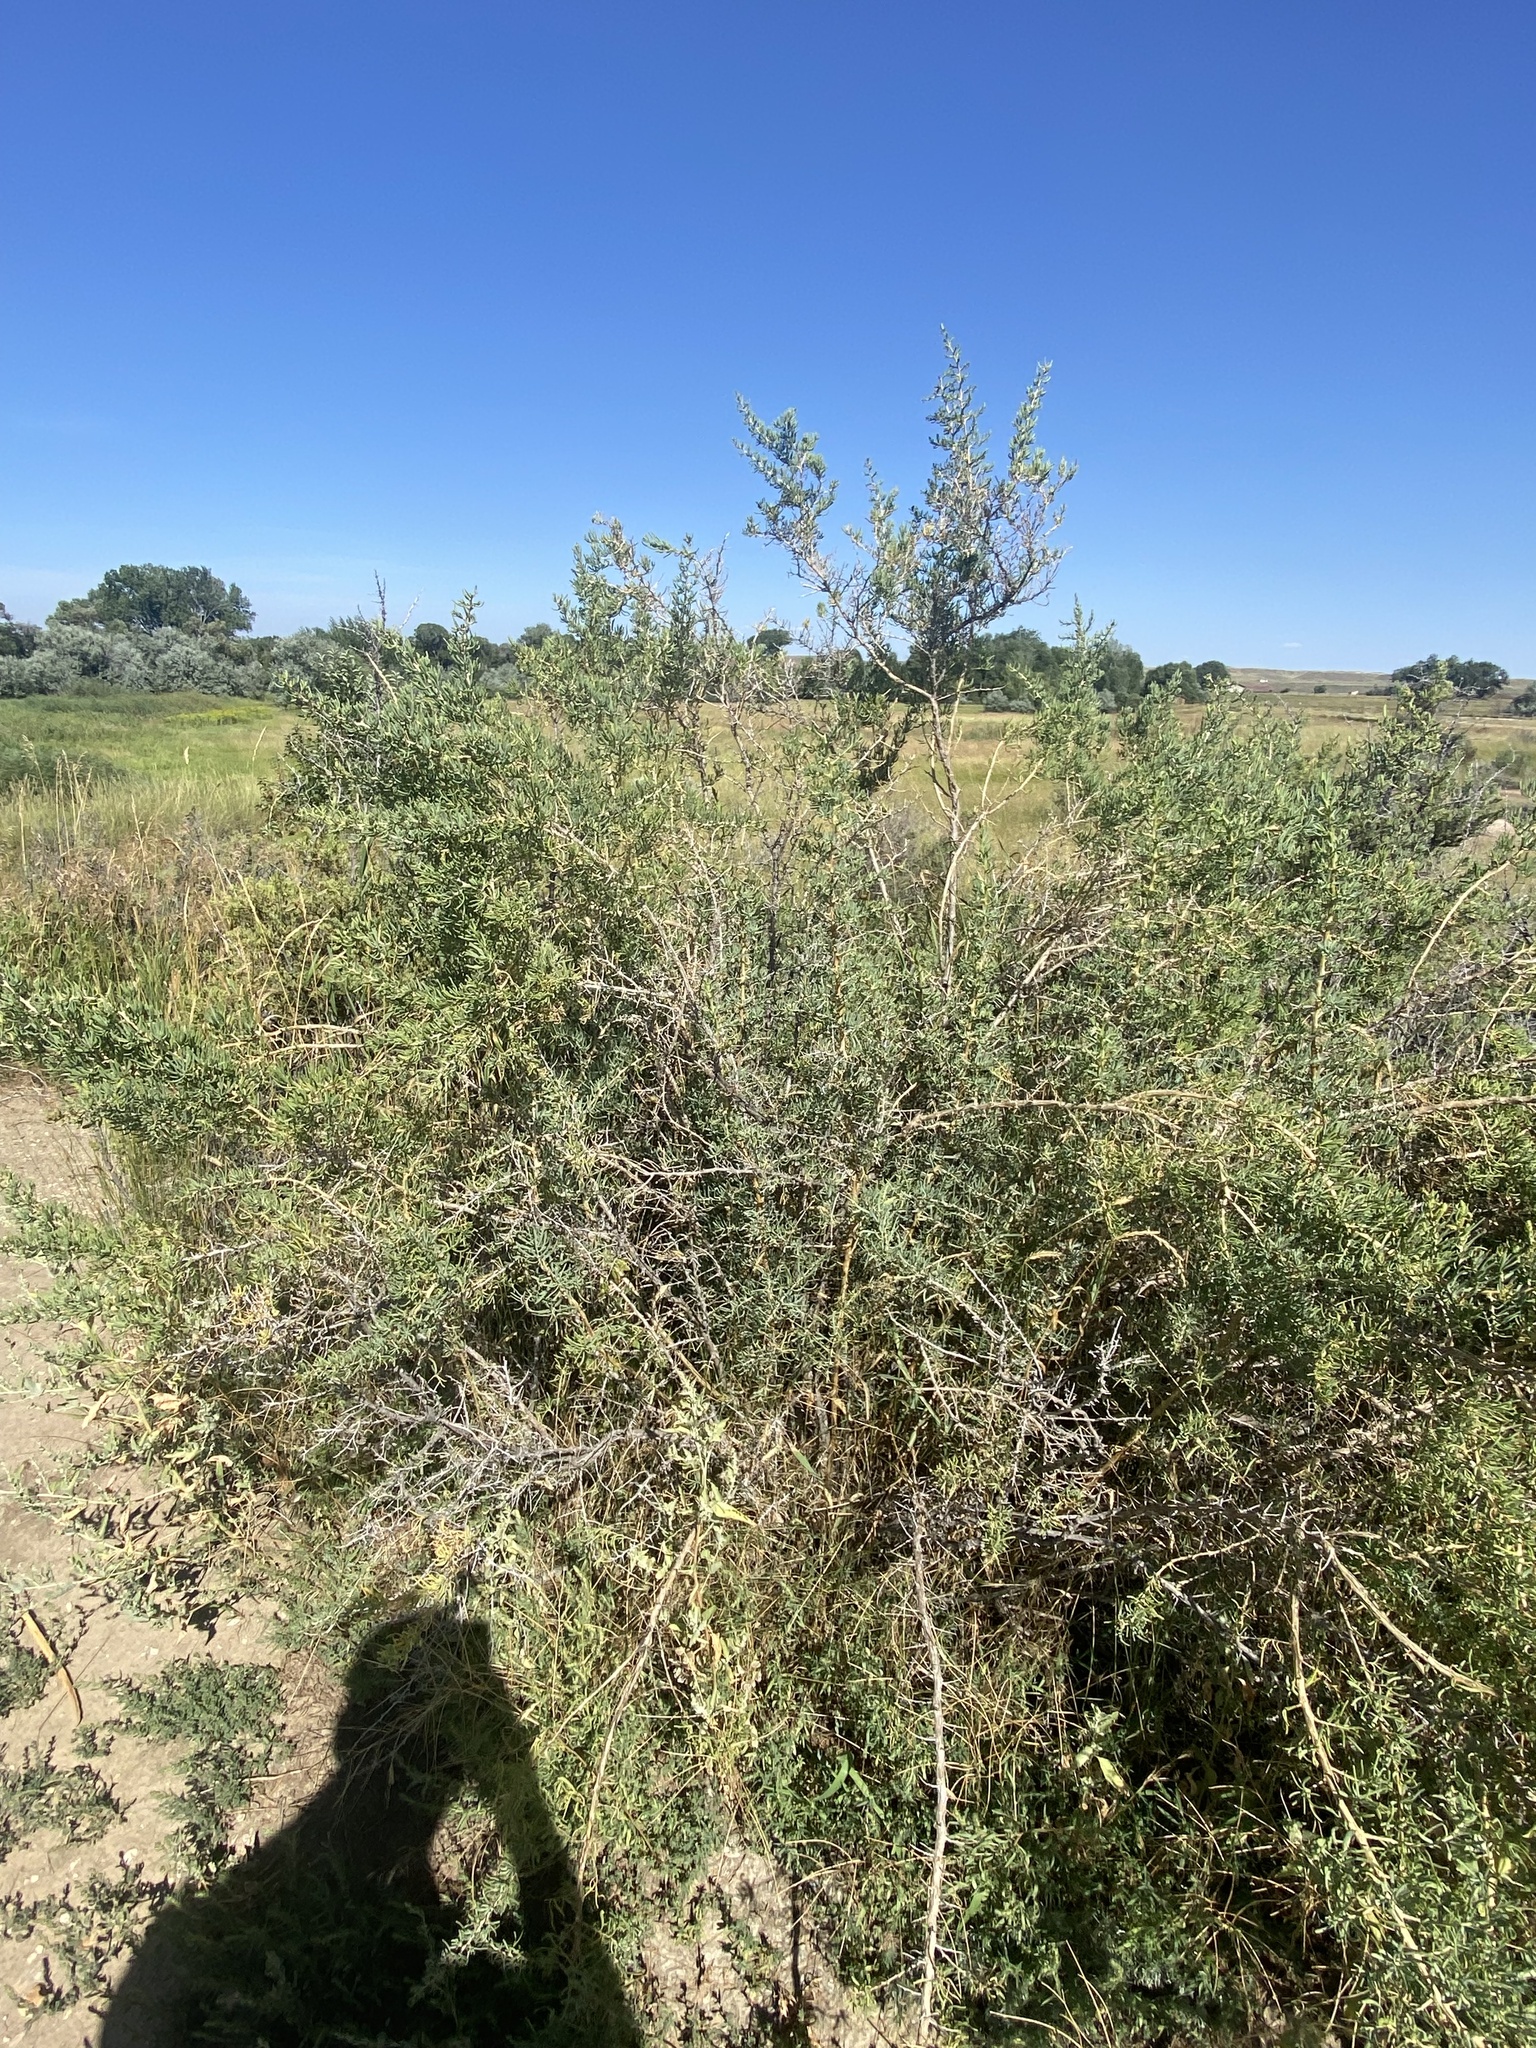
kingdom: Plantae
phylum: Tracheophyta
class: Magnoliopsida
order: Caryophyllales
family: Sarcobataceae
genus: Sarcobatus
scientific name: Sarcobatus vermiculatus
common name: Greasewood
